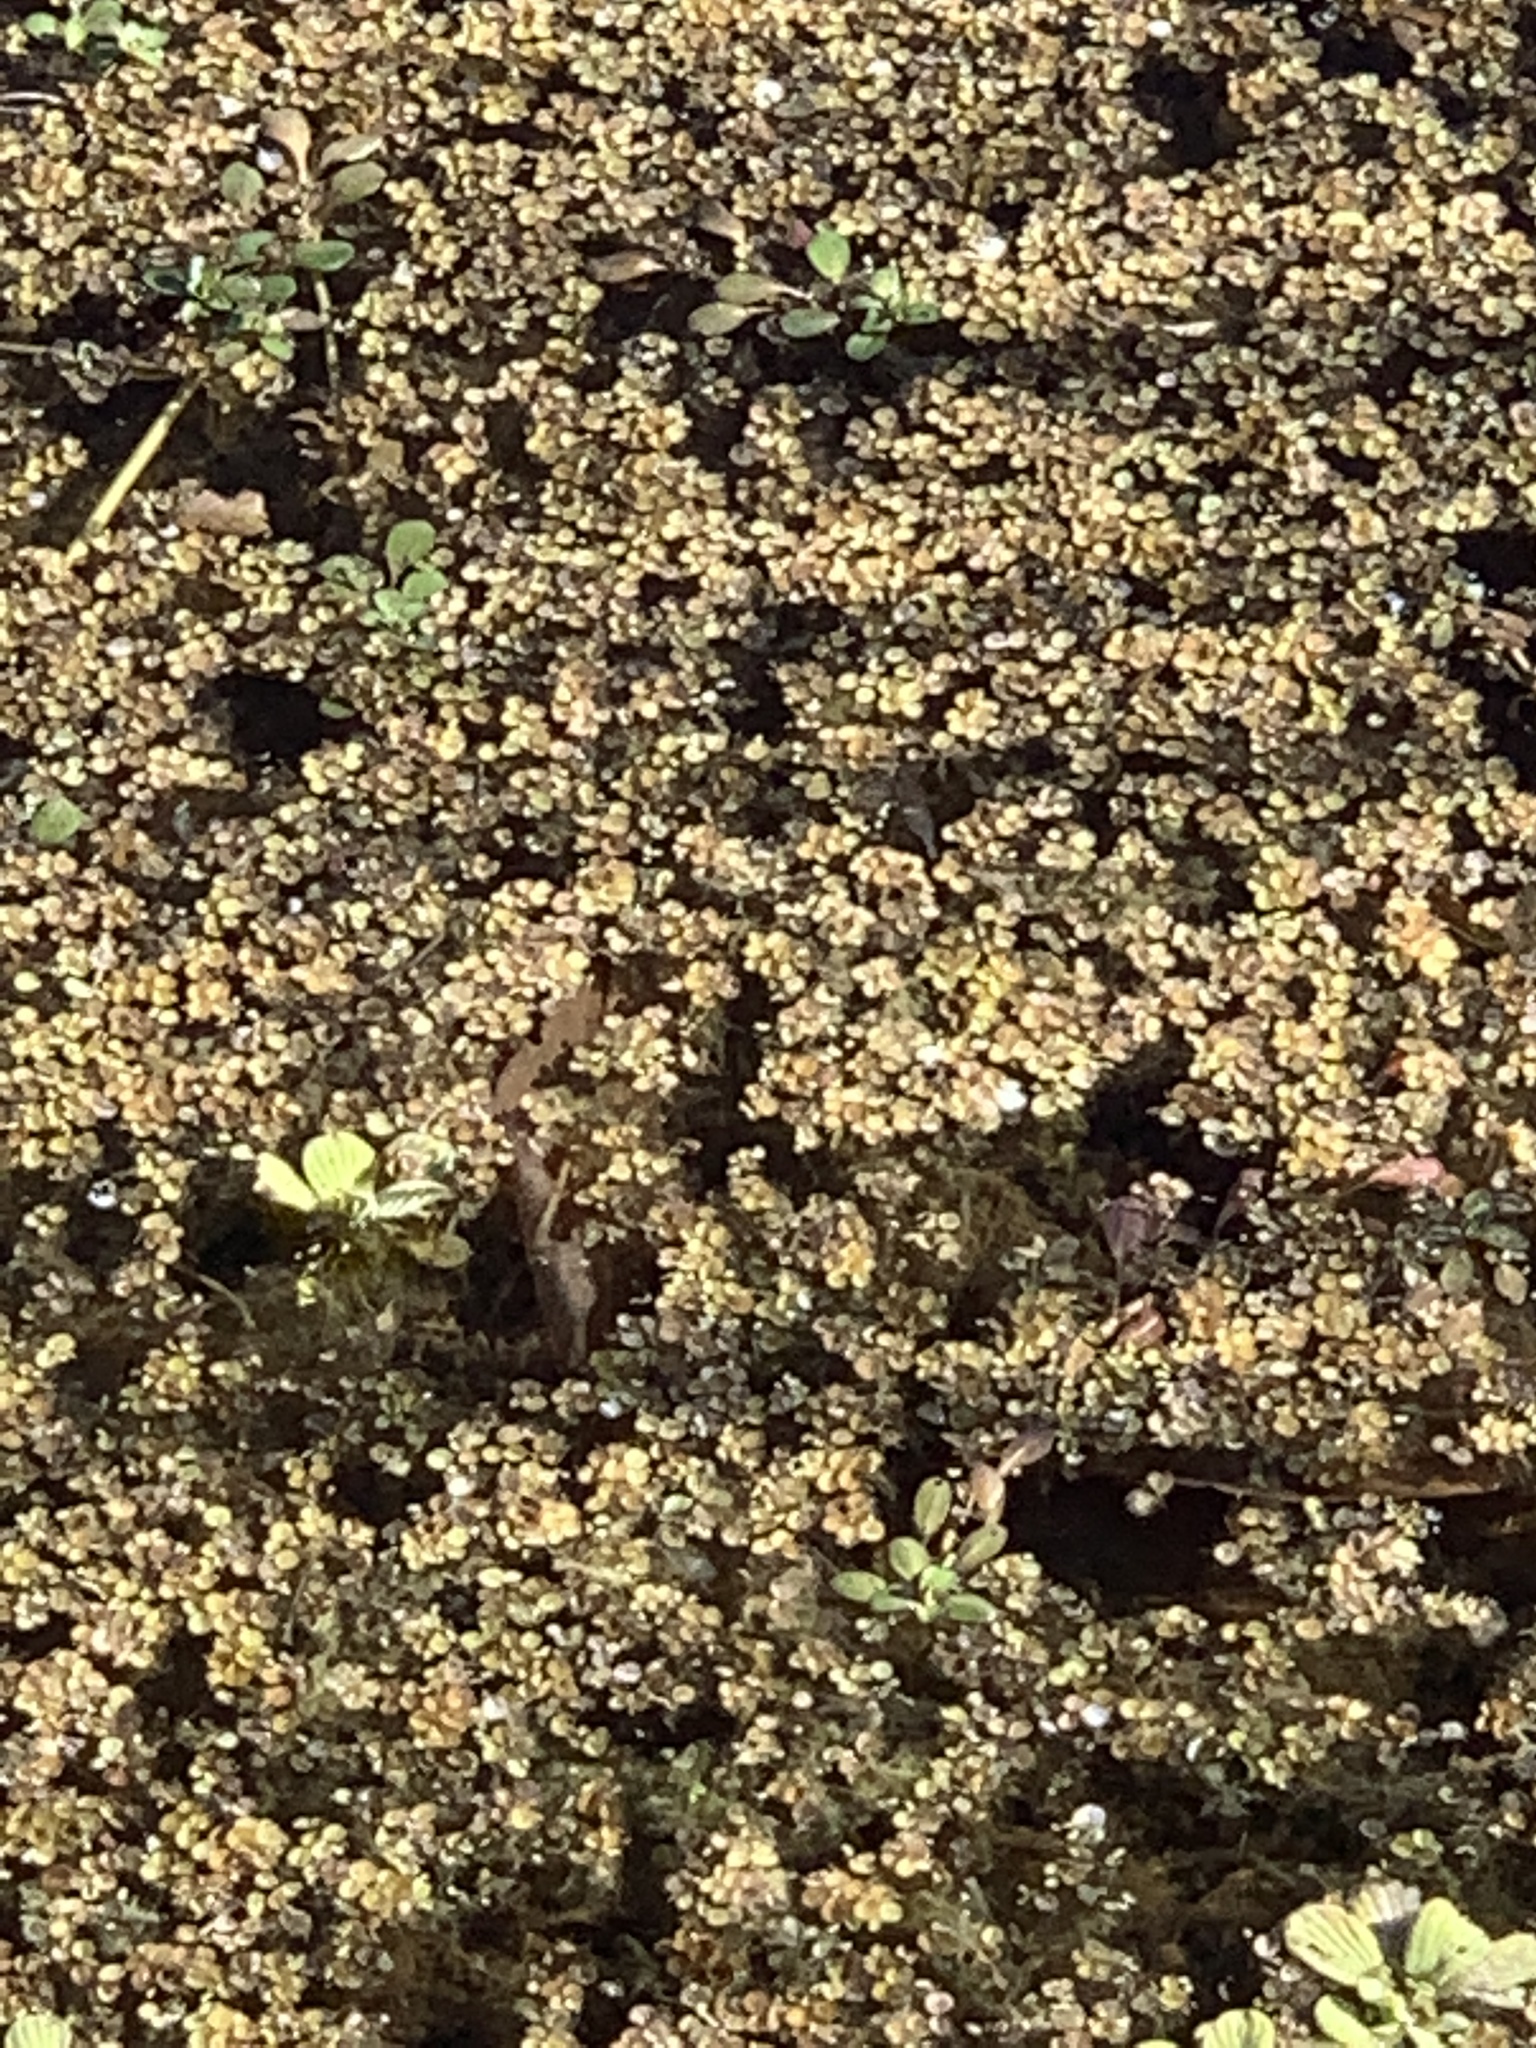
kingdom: Plantae
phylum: Tracheophyta
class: Polypodiopsida
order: Salviniales
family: Salviniaceae
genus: Salvinia
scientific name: Salvinia minima
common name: Water spangles
